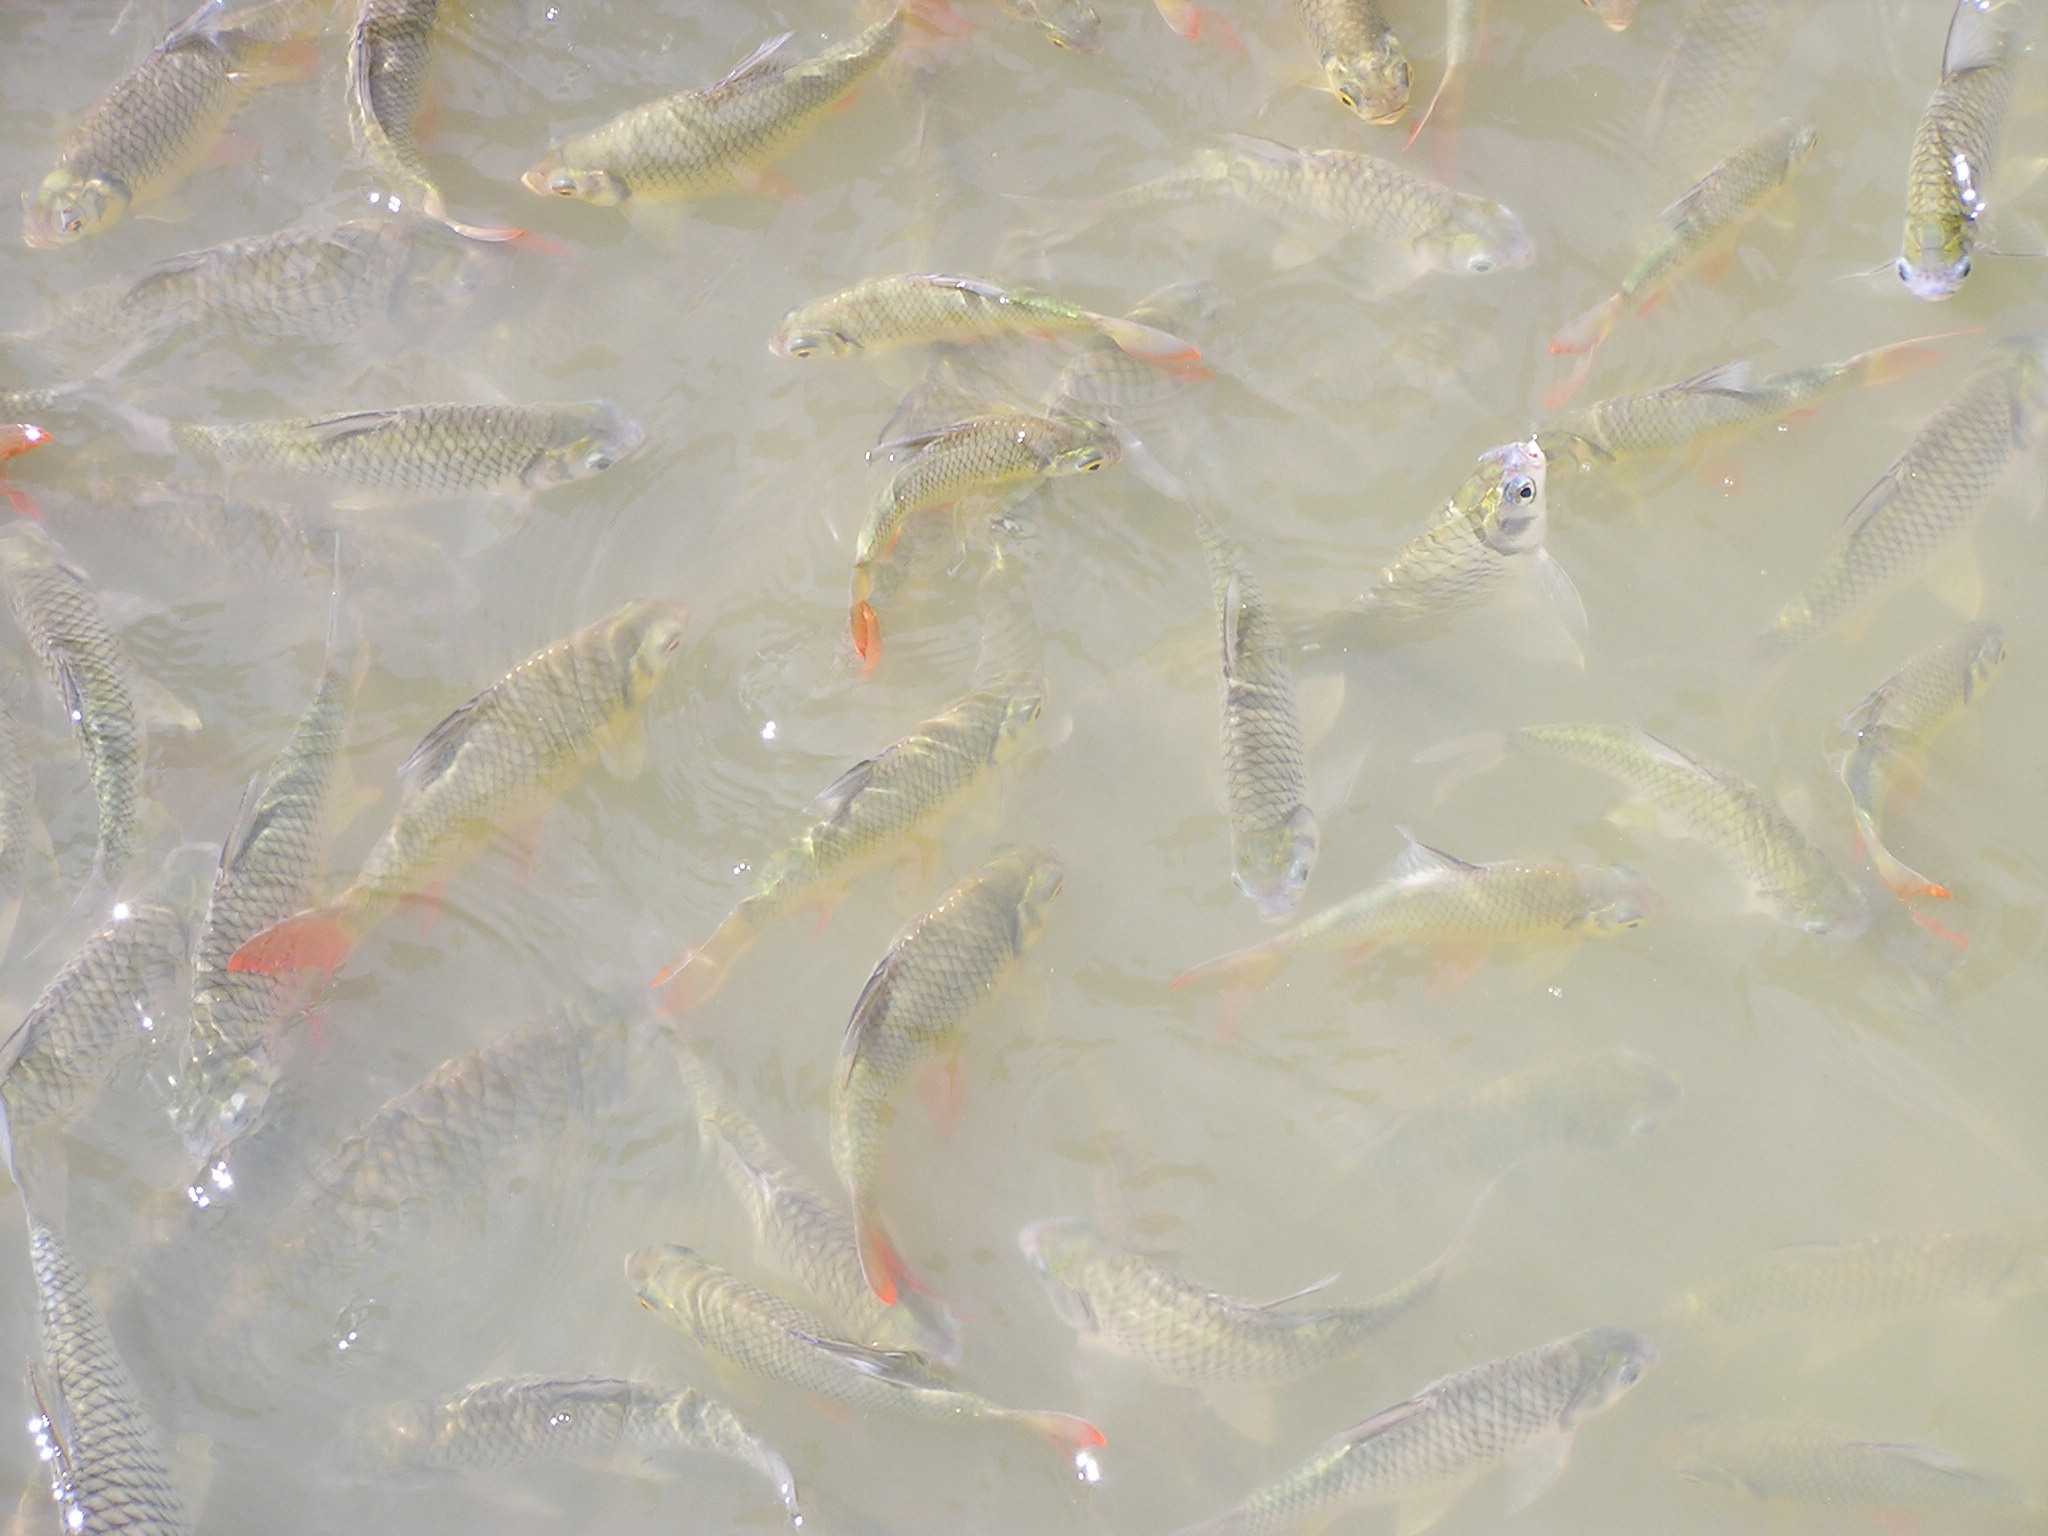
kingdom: Animalia
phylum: Chordata
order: Cypriniformes
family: Cyprinidae
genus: Barbonymus
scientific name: Barbonymus altus
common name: Red tailed tinfoil
